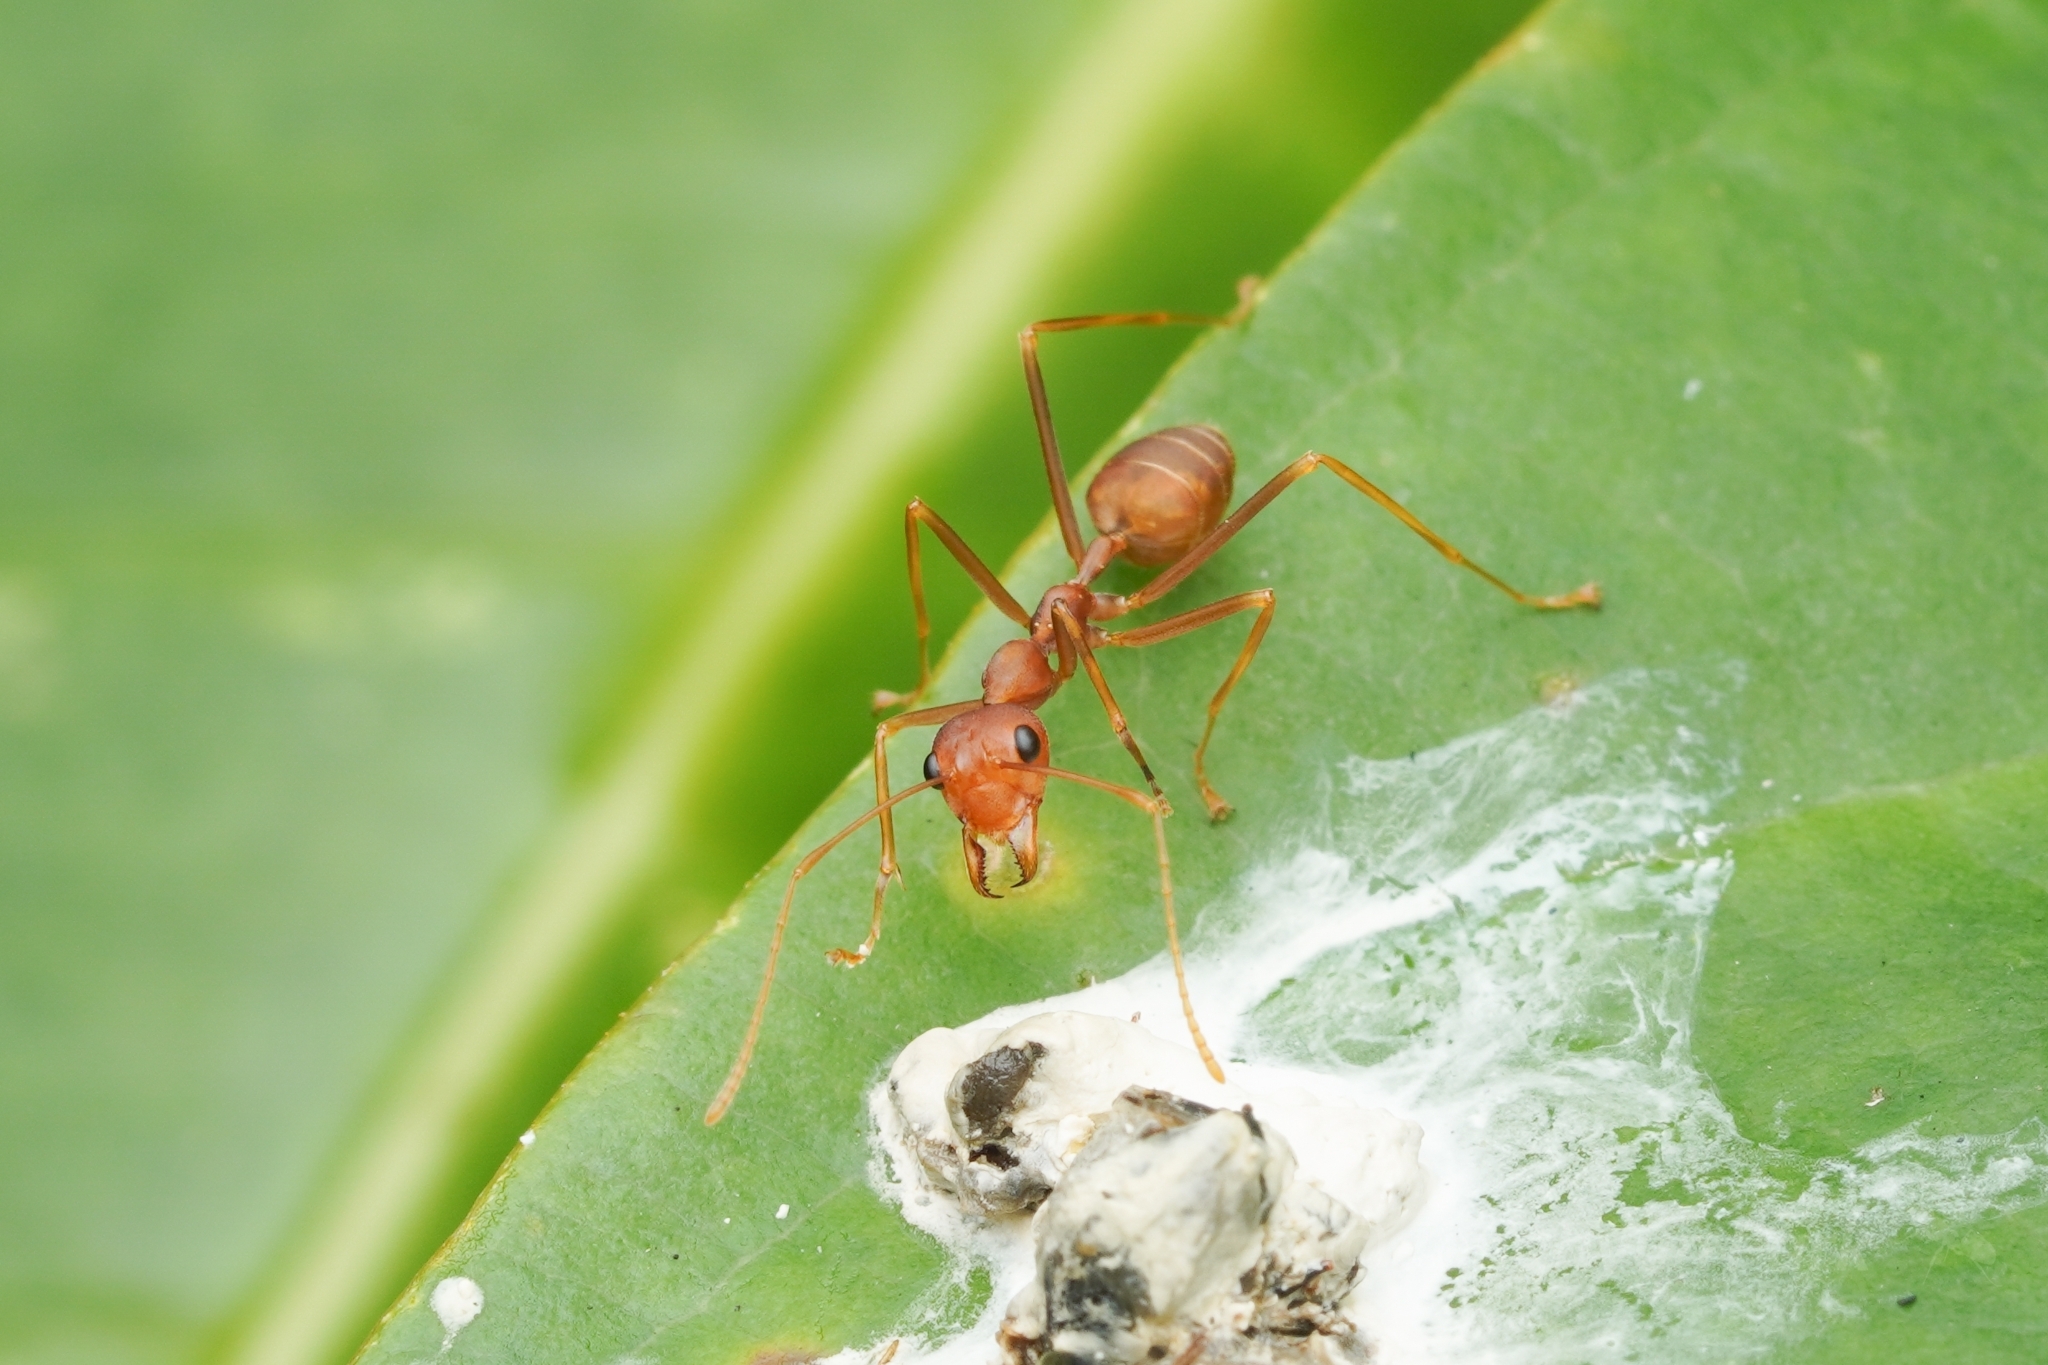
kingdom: Animalia
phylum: Arthropoda
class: Insecta
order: Hymenoptera
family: Formicidae
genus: Oecophylla
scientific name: Oecophylla smaragdina
